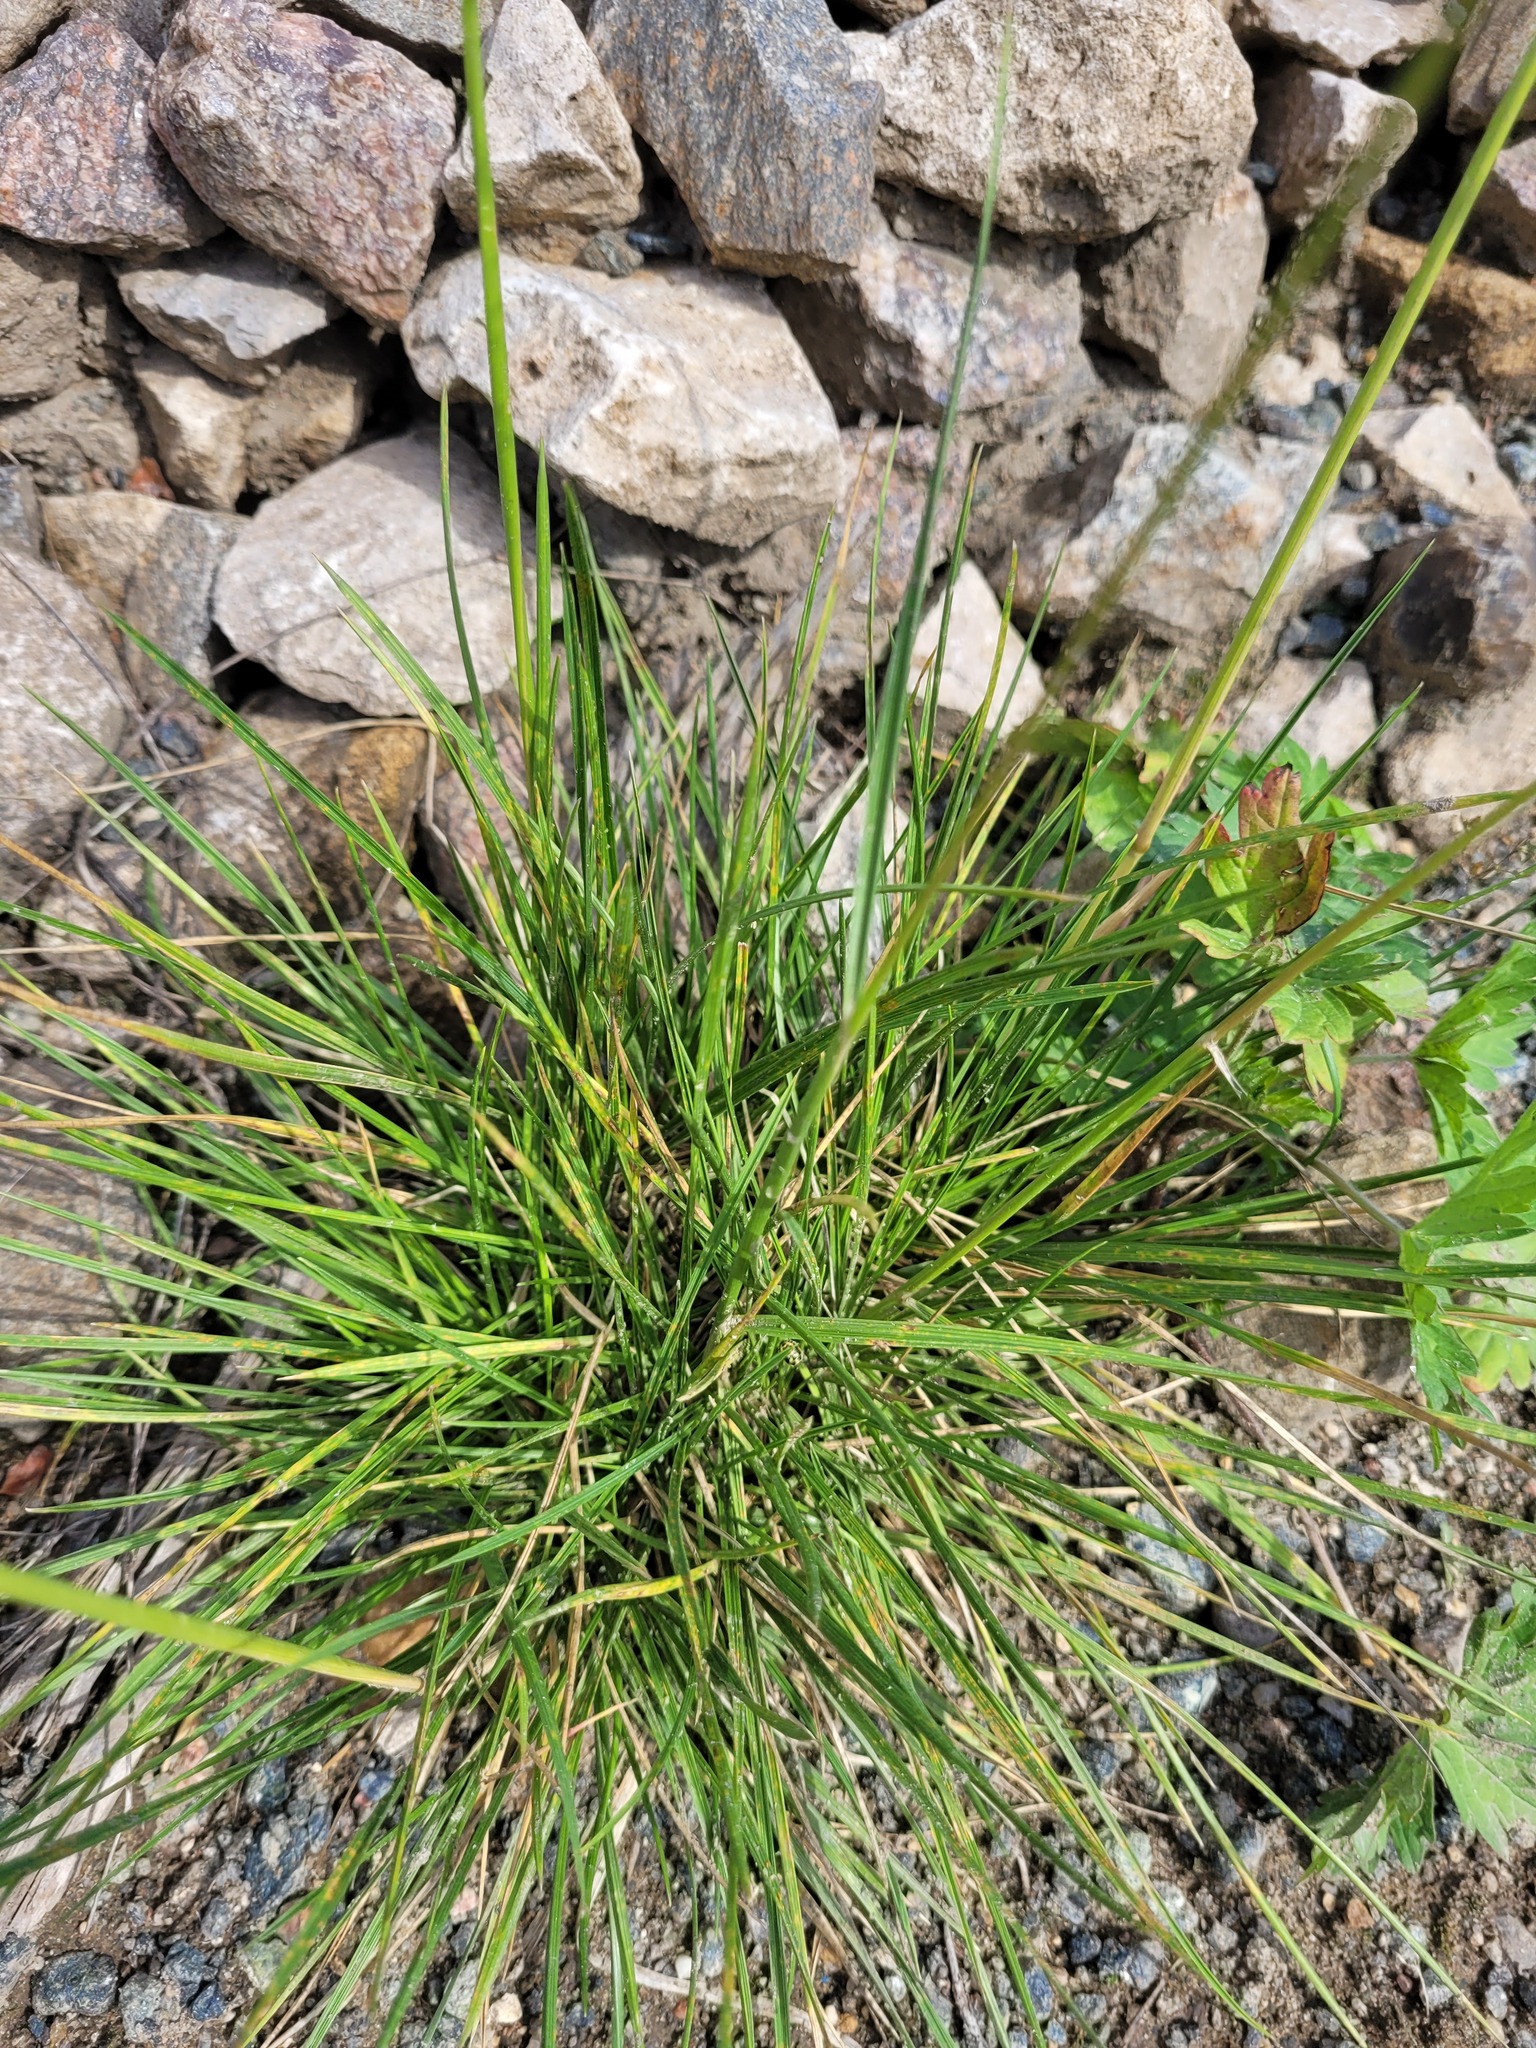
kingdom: Plantae
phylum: Tracheophyta
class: Liliopsida
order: Poales
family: Poaceae
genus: Deschampsia
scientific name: Deschampsia cespitosa
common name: Tufted hair-grass
